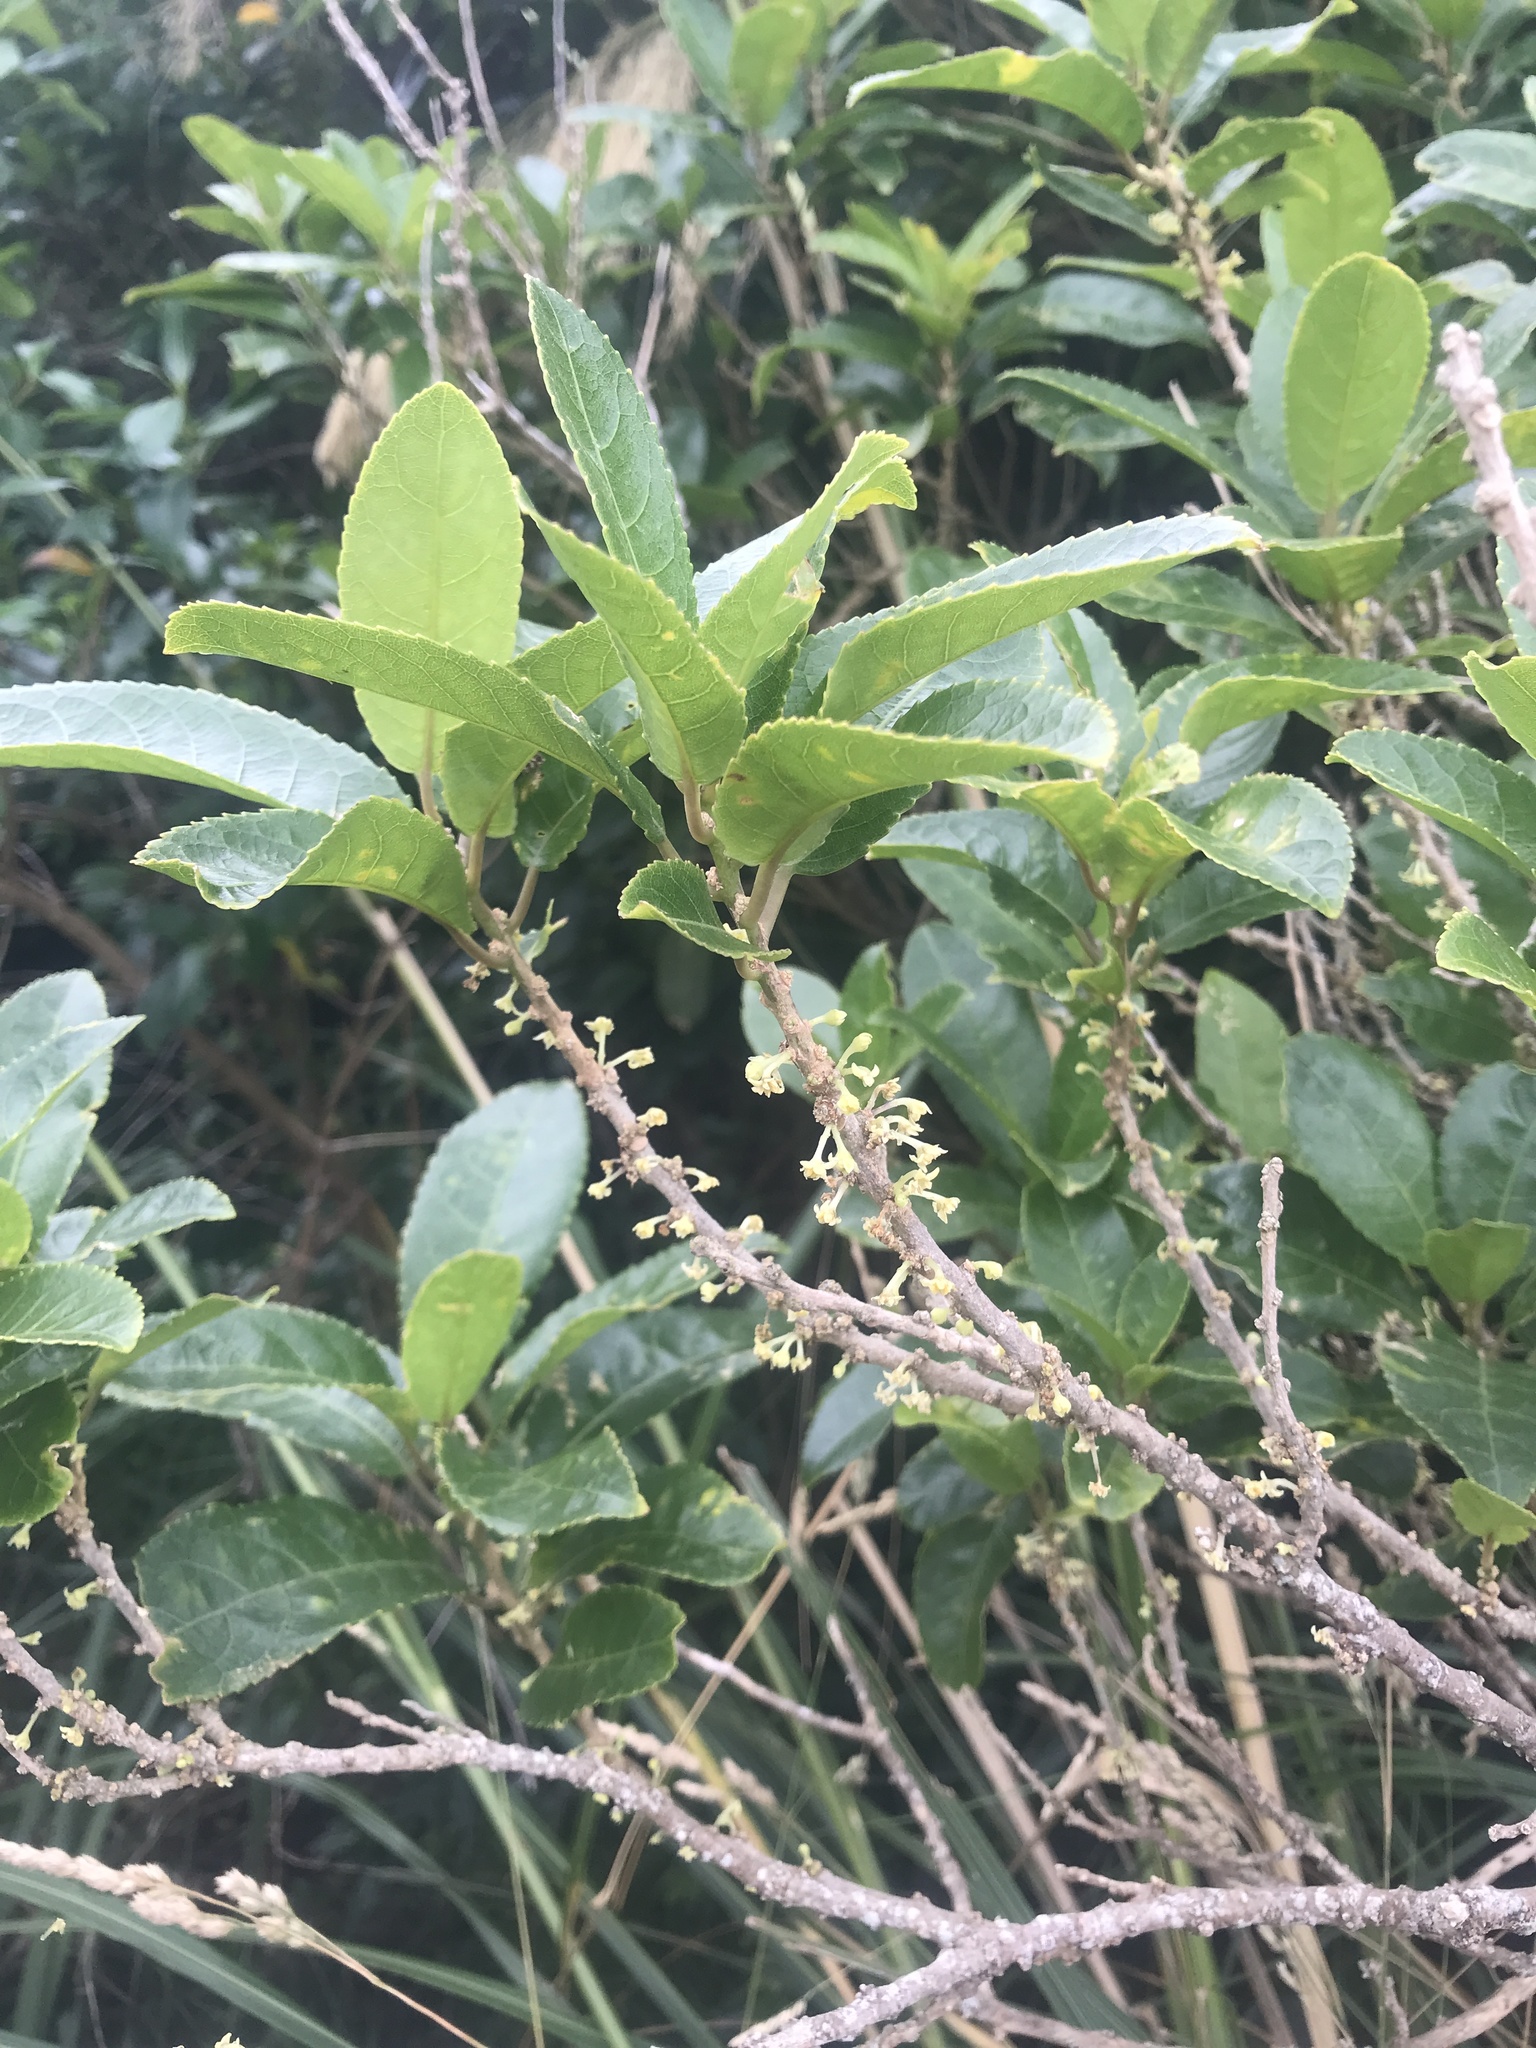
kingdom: Plantae
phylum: Tracheophyta
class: Magnoliopsida
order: Malpighiales
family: Violaceae
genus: Melicytus
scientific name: Melicytus ramiflorus
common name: Mahoe
